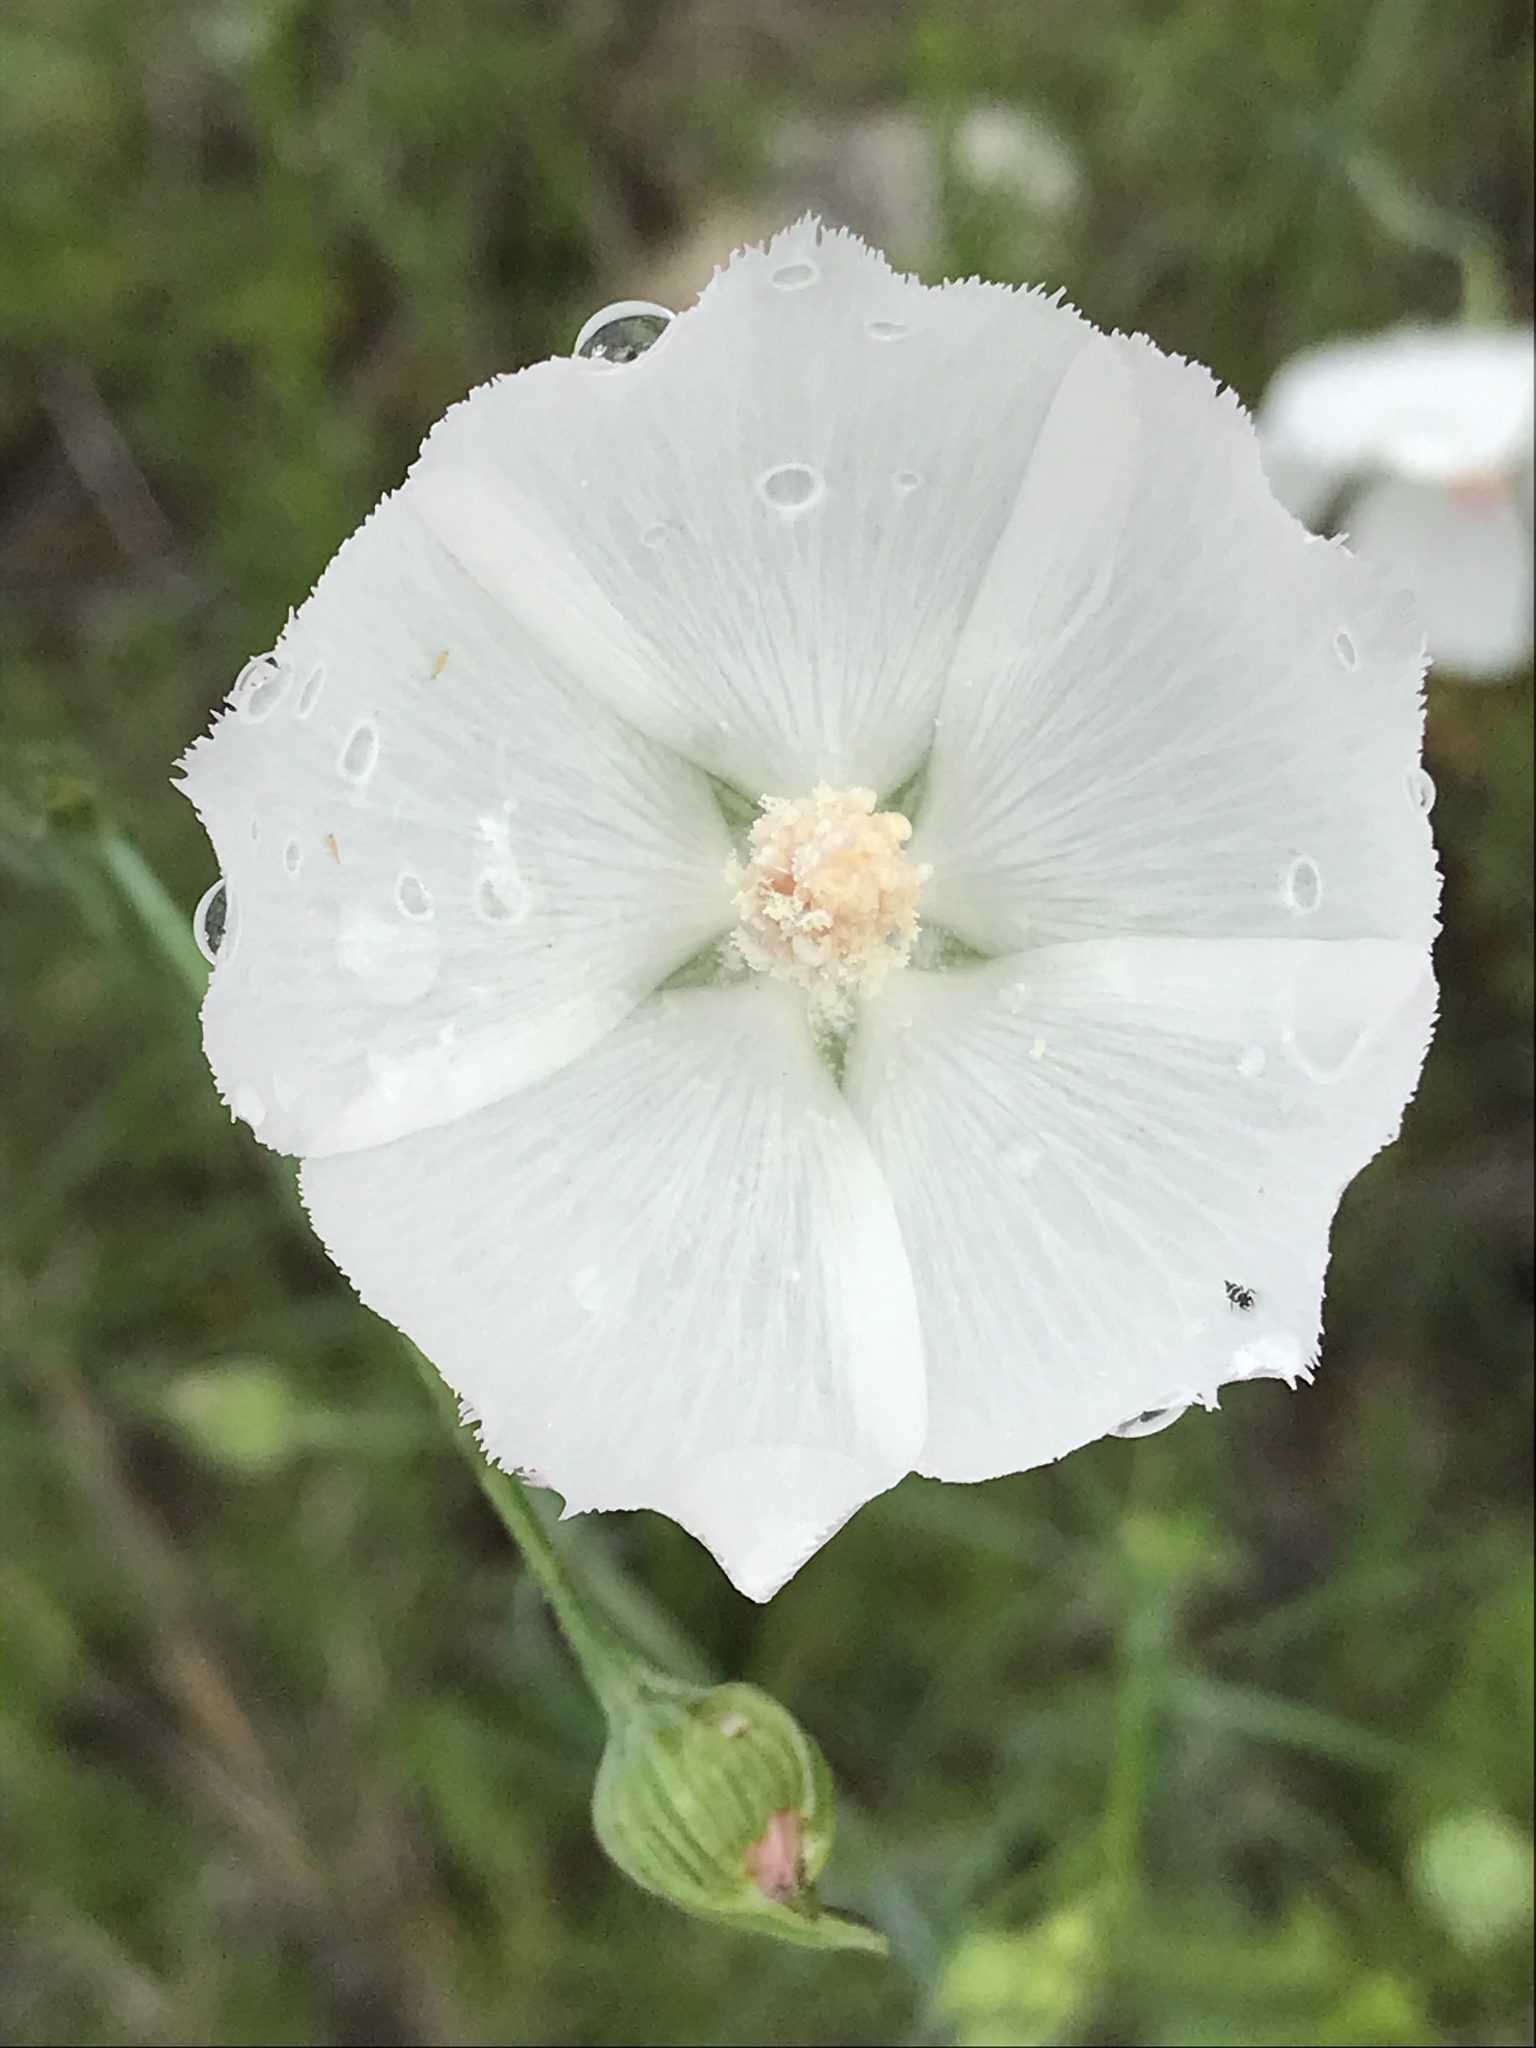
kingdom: Plantae
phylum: Tracheophyta
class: Magnoliopsida
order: Malvales
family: Malvaceae
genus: Callirhoe
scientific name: Callirhoe pedata
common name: Finger poppy-mallow
